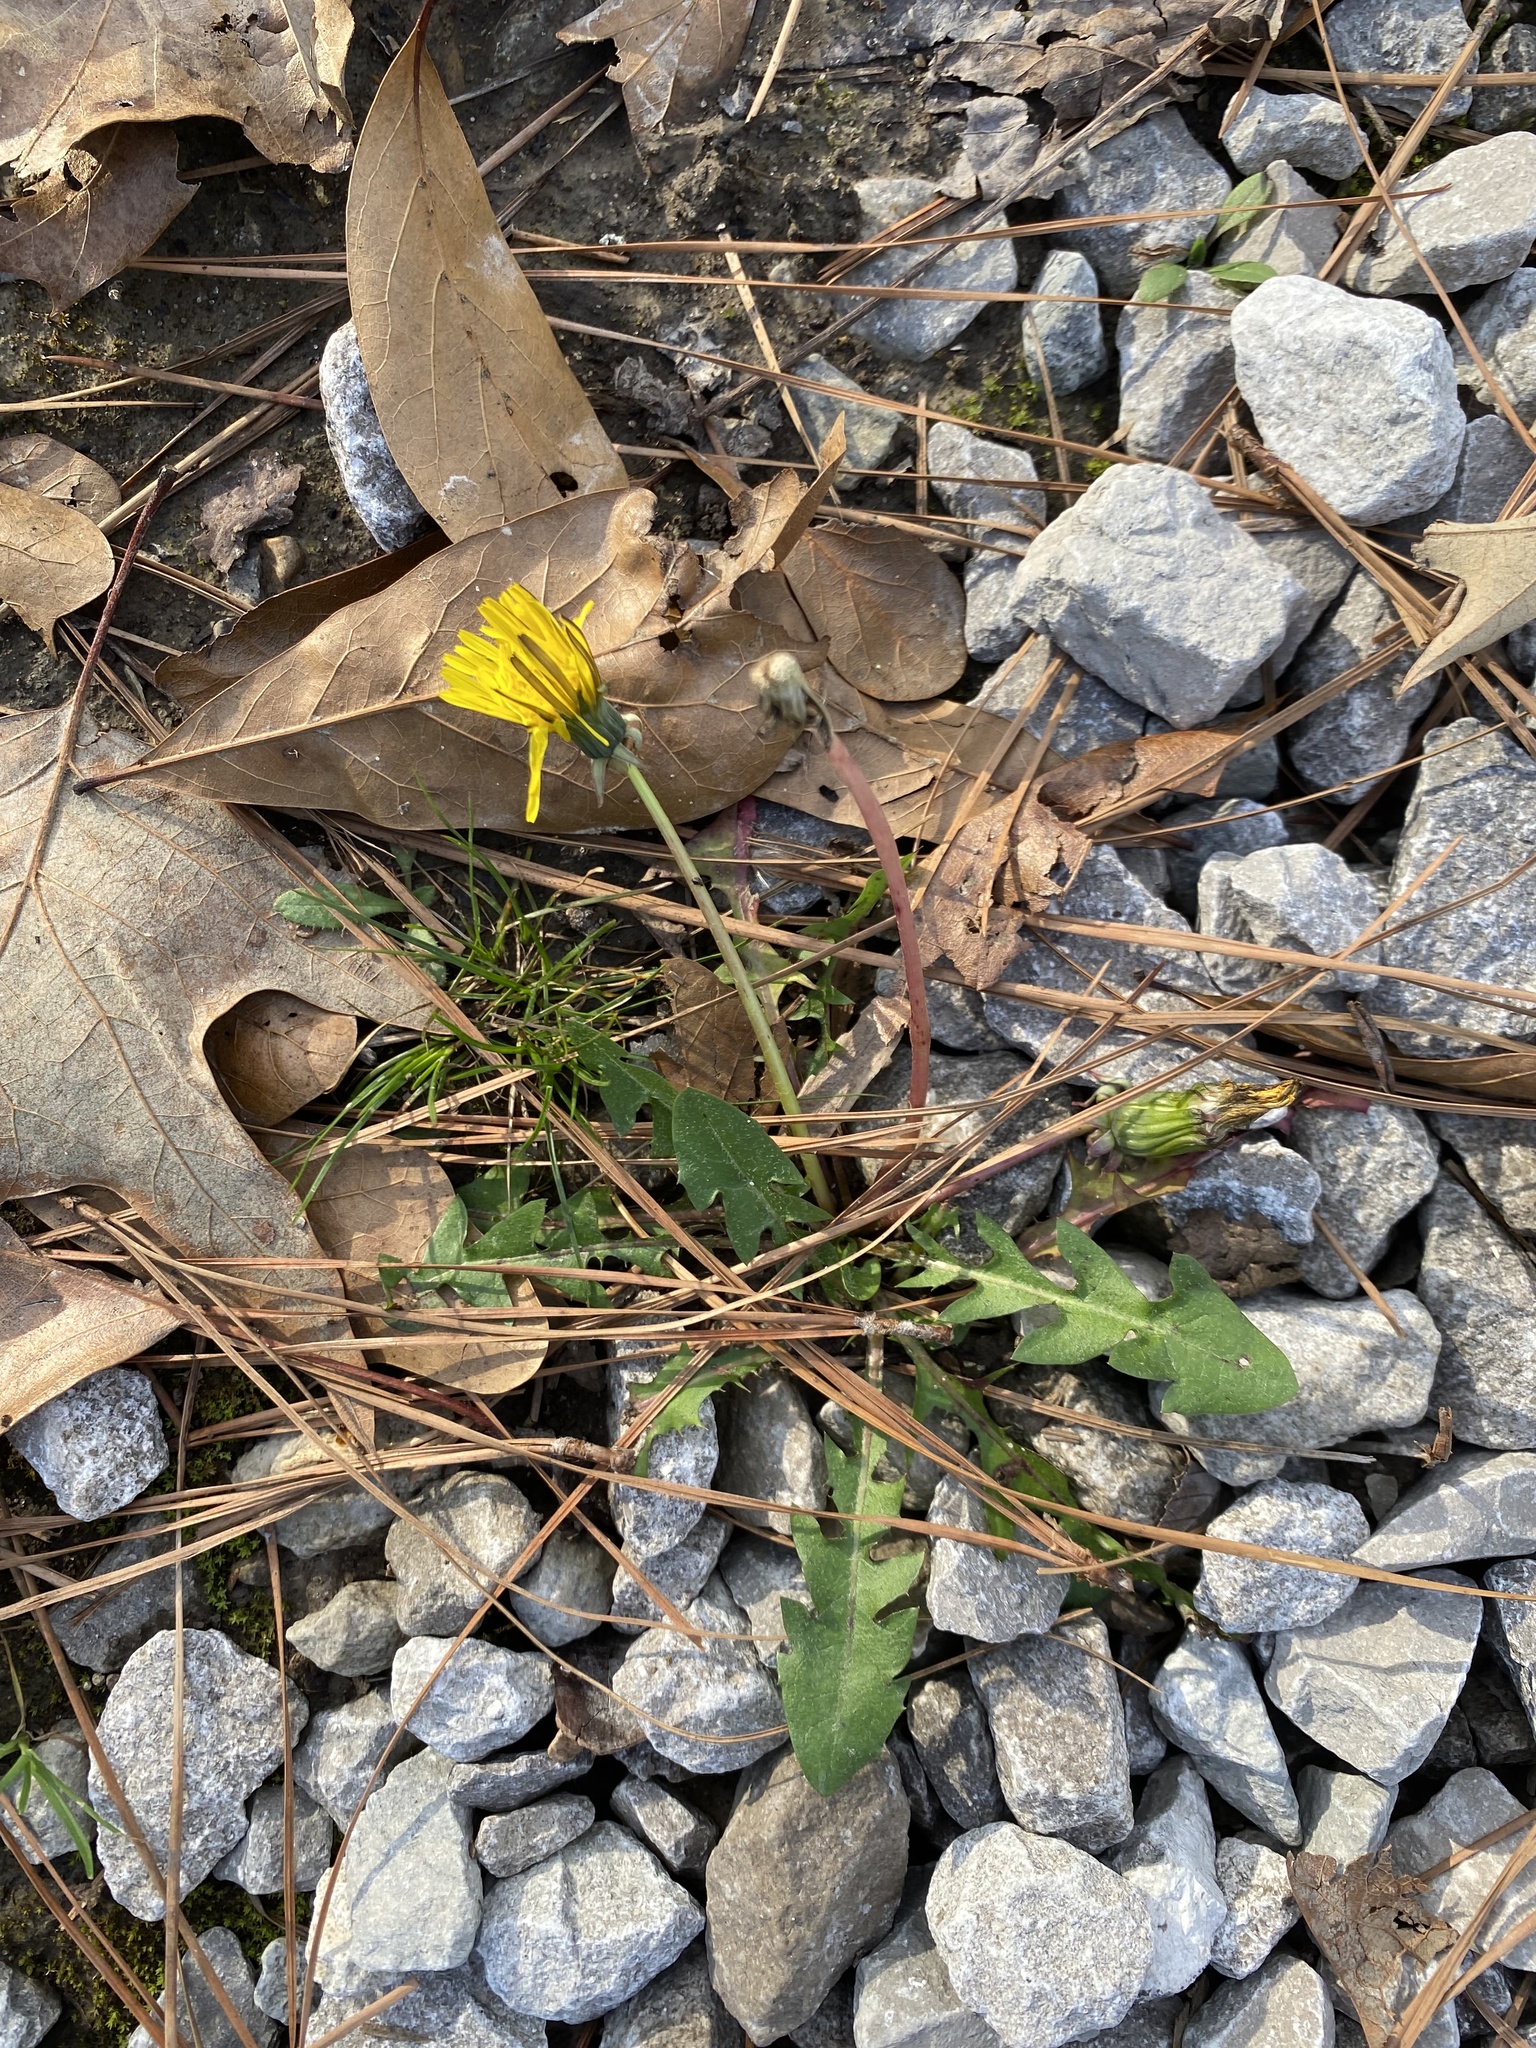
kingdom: Plantae
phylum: Tracheophyta
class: Magnoliopsida
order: Asterales
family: Asteraceae
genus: Taraxacum
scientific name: Taraxacum officinale
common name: Common dandelion
